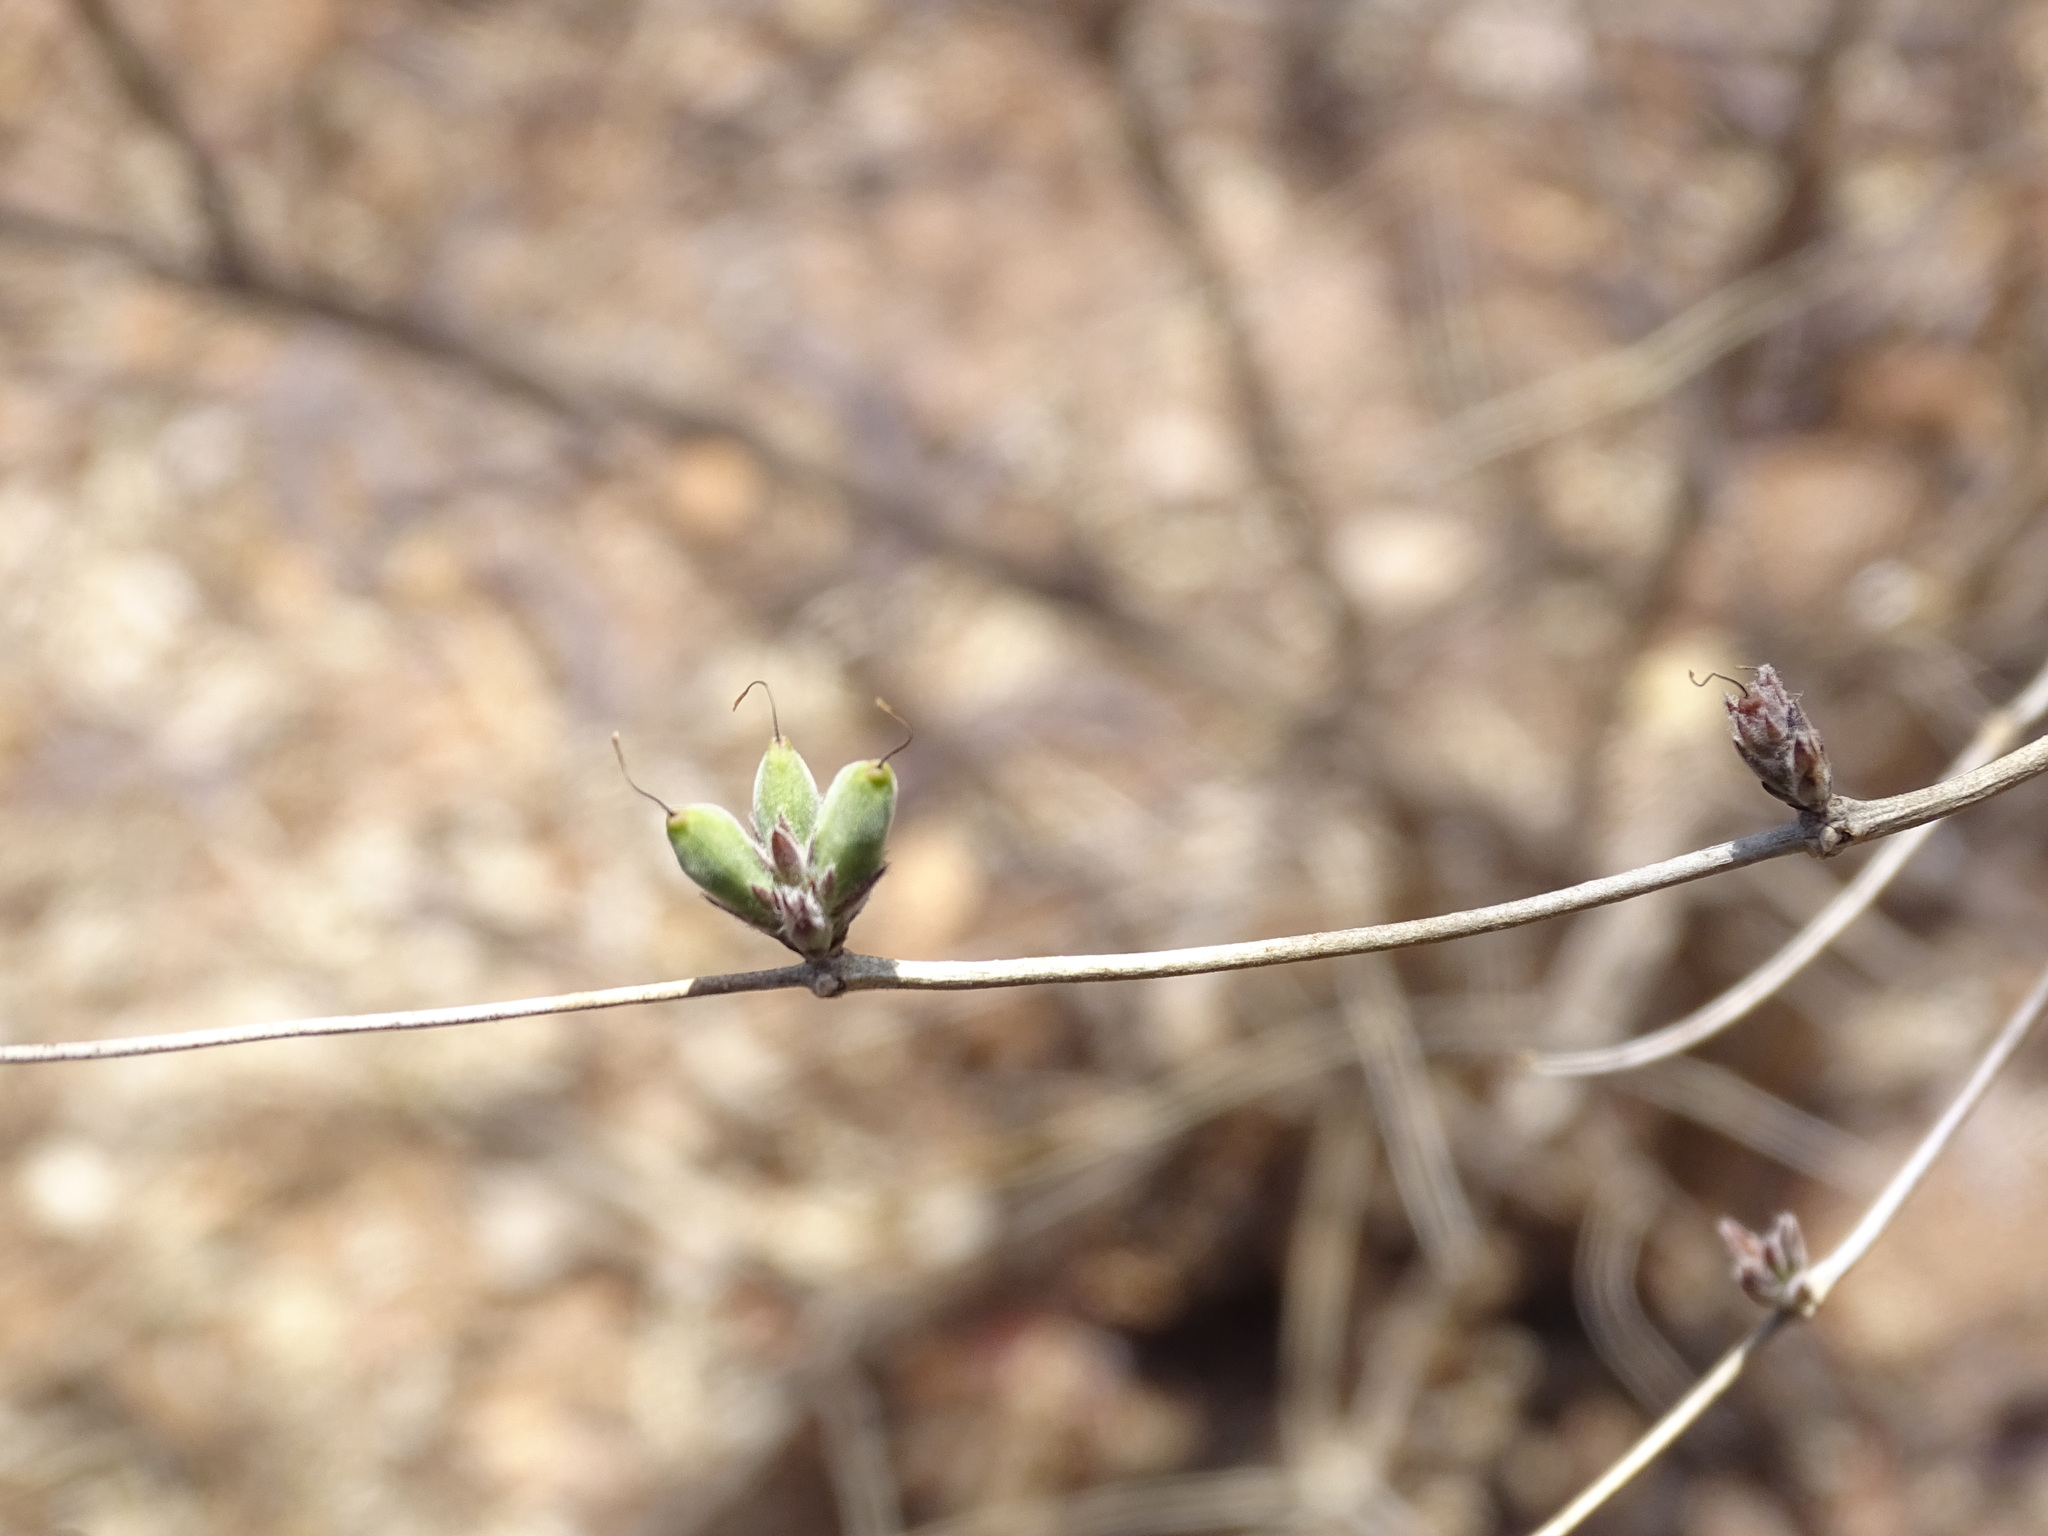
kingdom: Plantae
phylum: Tracheophyta
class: Magnoliopsida
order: Lamiales
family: Acanthaceae
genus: Holographis
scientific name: Holographis pallida
